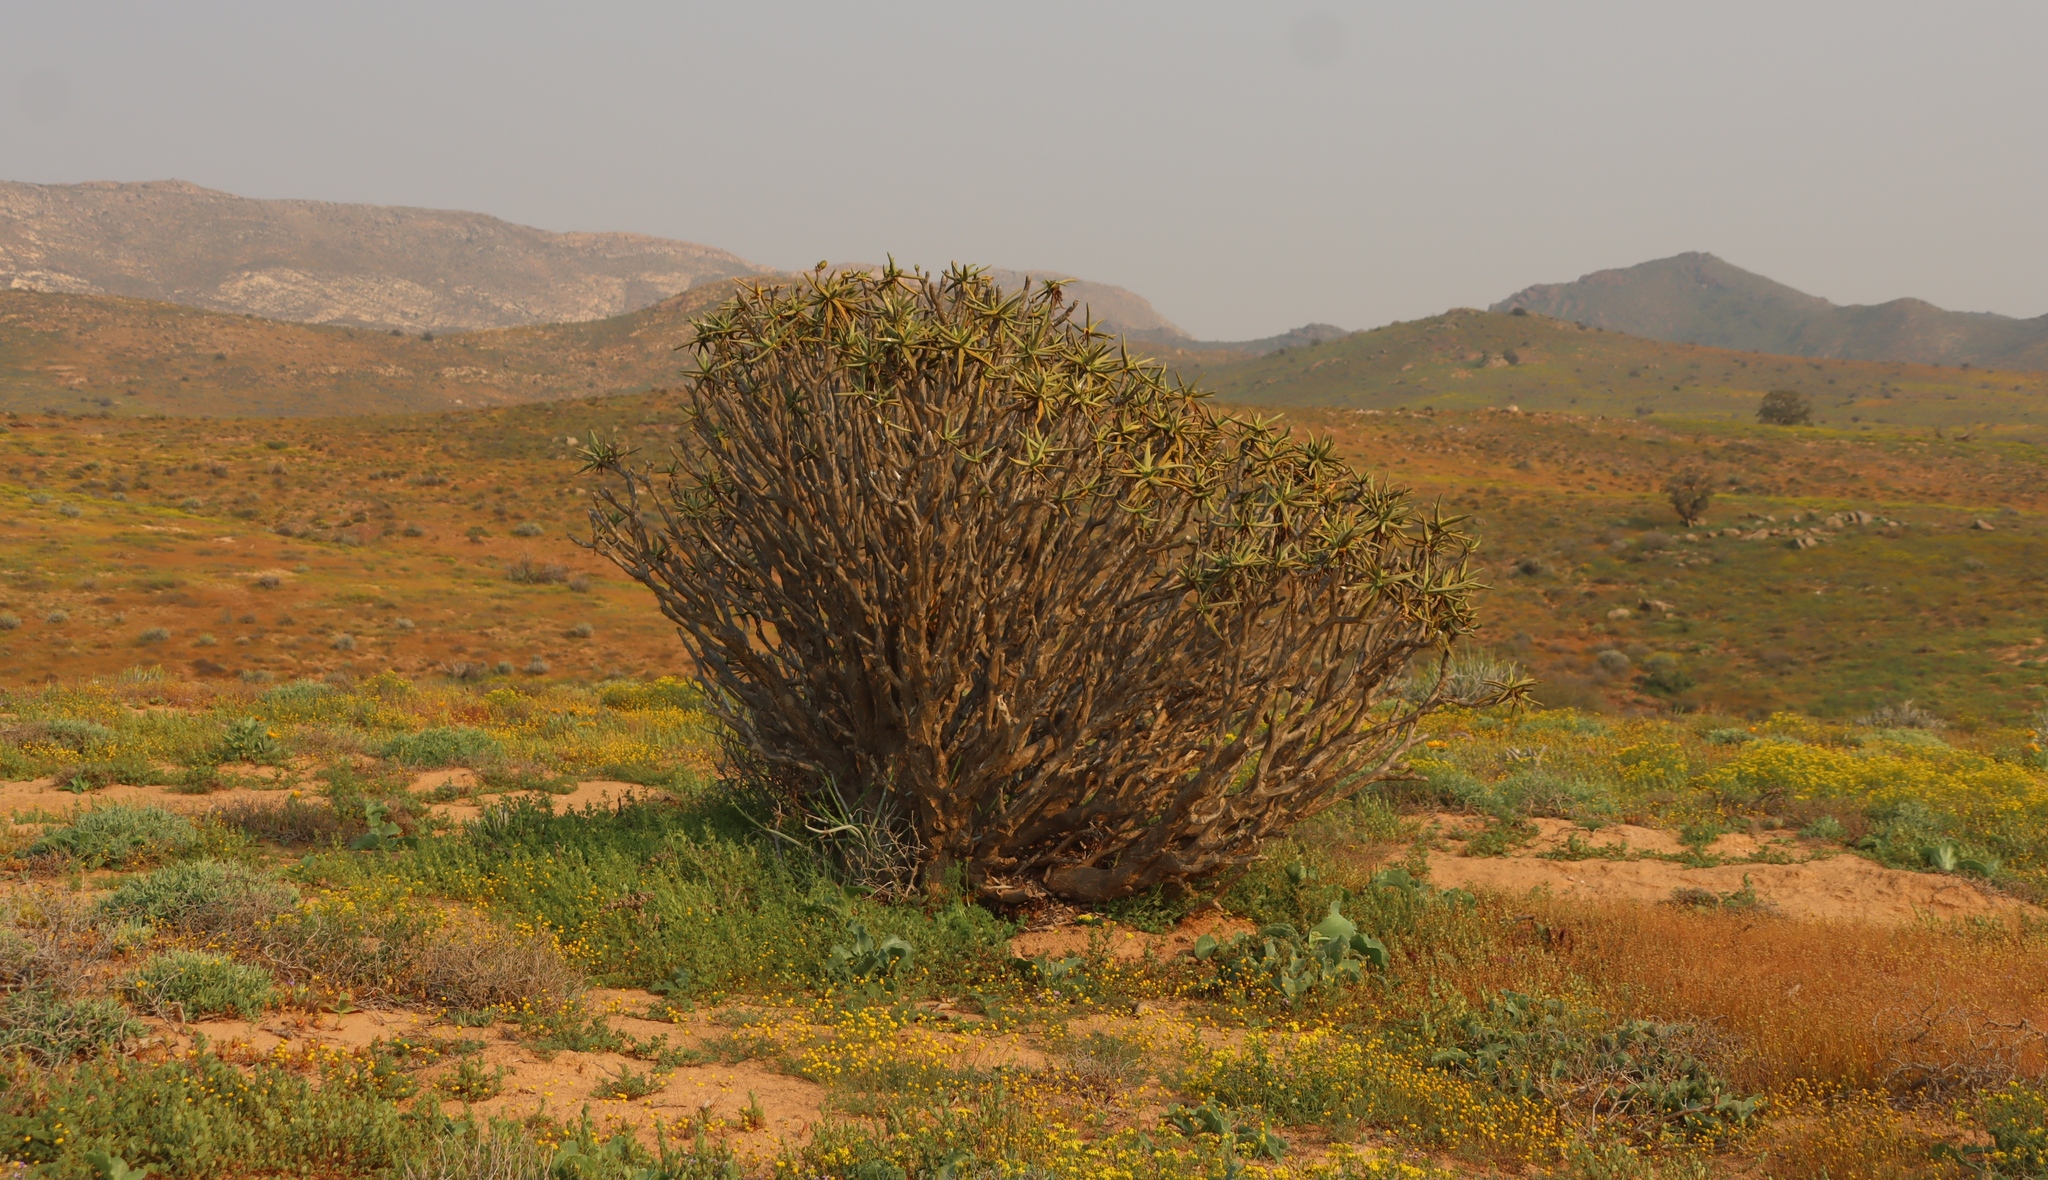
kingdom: Plantae
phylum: Tracheophyta
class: Liliopsida
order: Asparagales
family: Asphodelaceae
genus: Aloidendron
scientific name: Aloidendron ramosissimum
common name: Bush quiver tree
